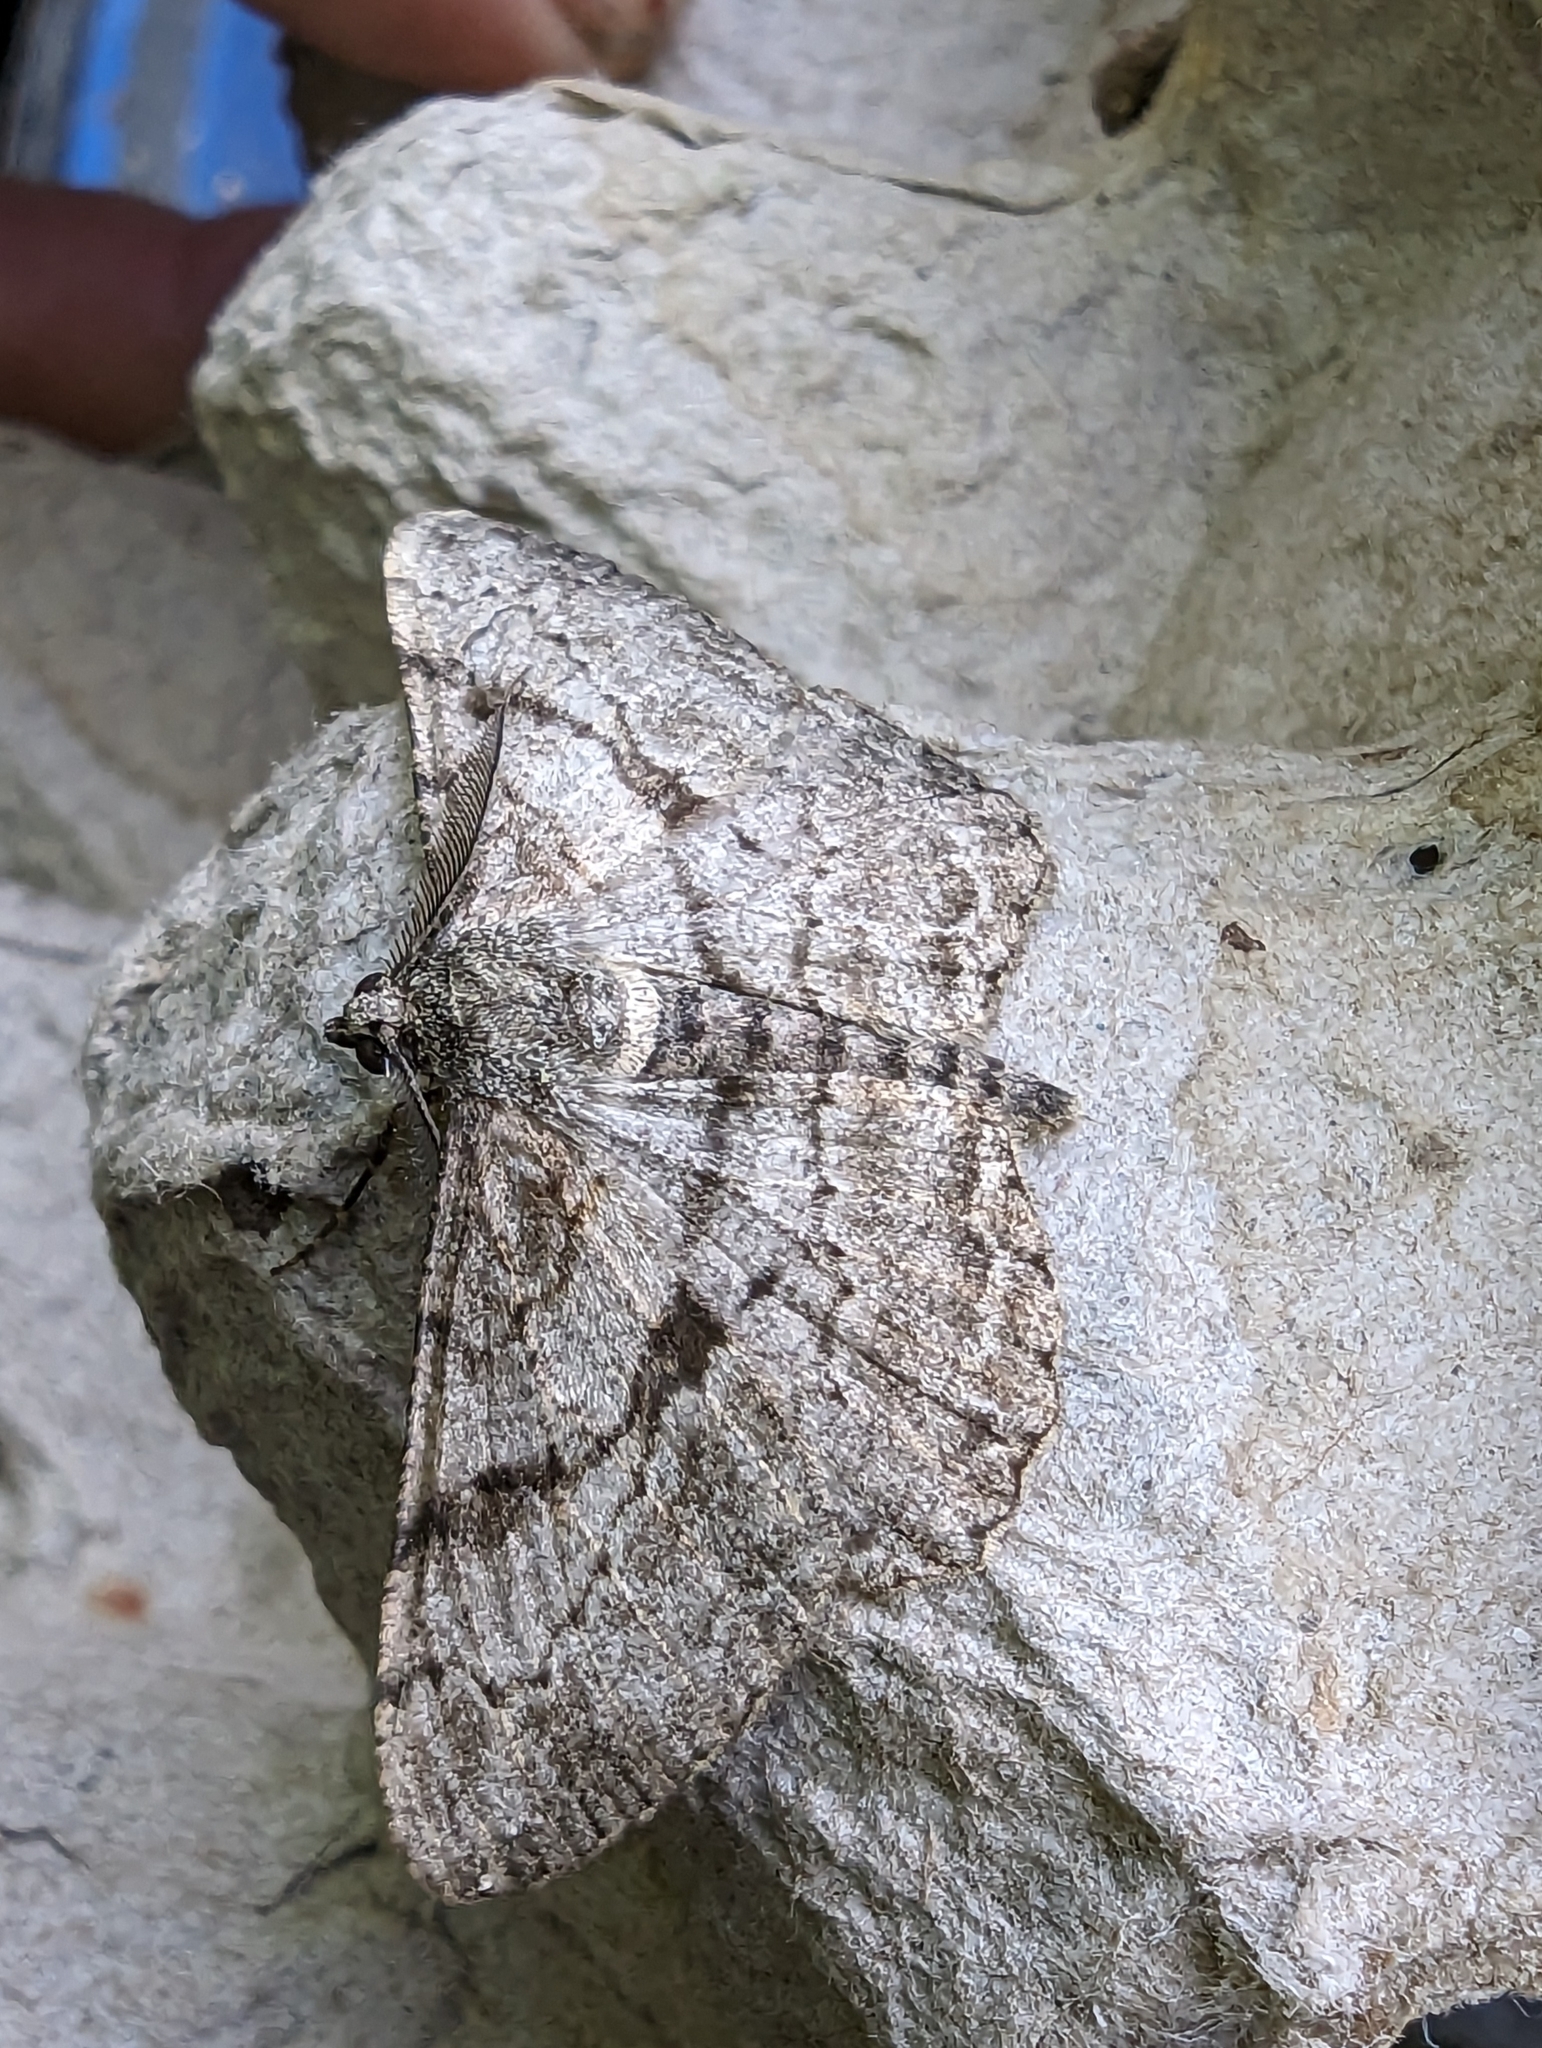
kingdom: Animalia
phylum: Arthropoda
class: Insecta
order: Lepidoptera
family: Geometridae
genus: Peribatodes
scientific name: Peribatodes rhomboidaria
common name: Willow beauty
